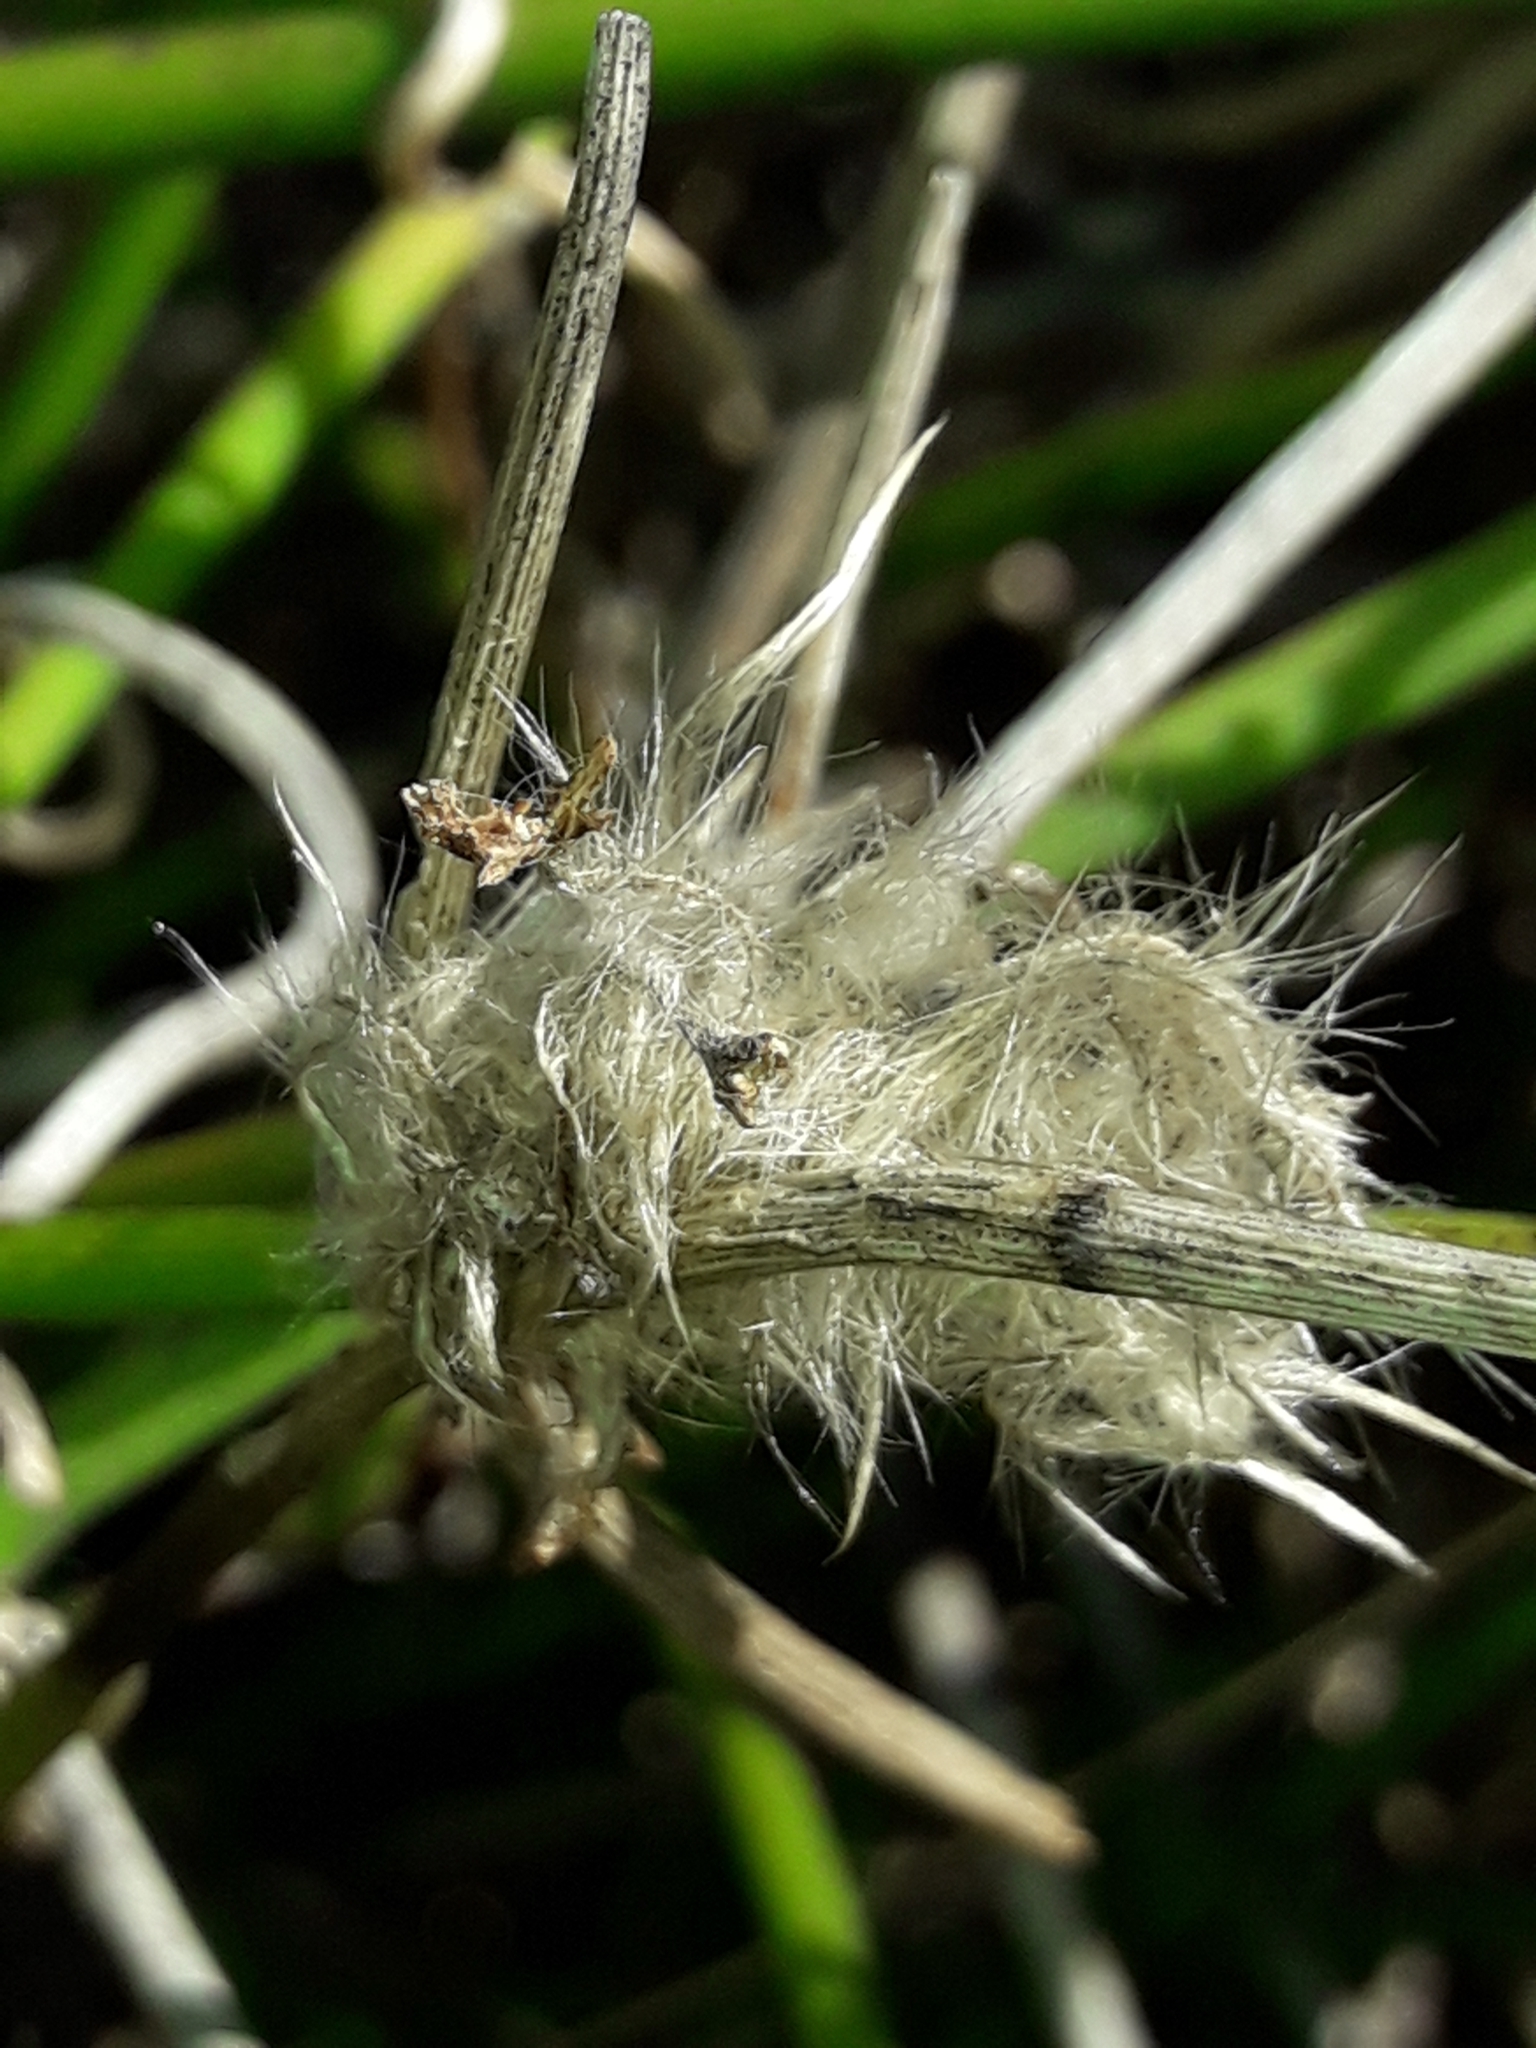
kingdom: Plantae
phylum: Tracheophyta
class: Magnoliopsida
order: Ranunculales
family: Ranunculaceae
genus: Clematis
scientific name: Clematis afoliata
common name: Rush-stem clematis
